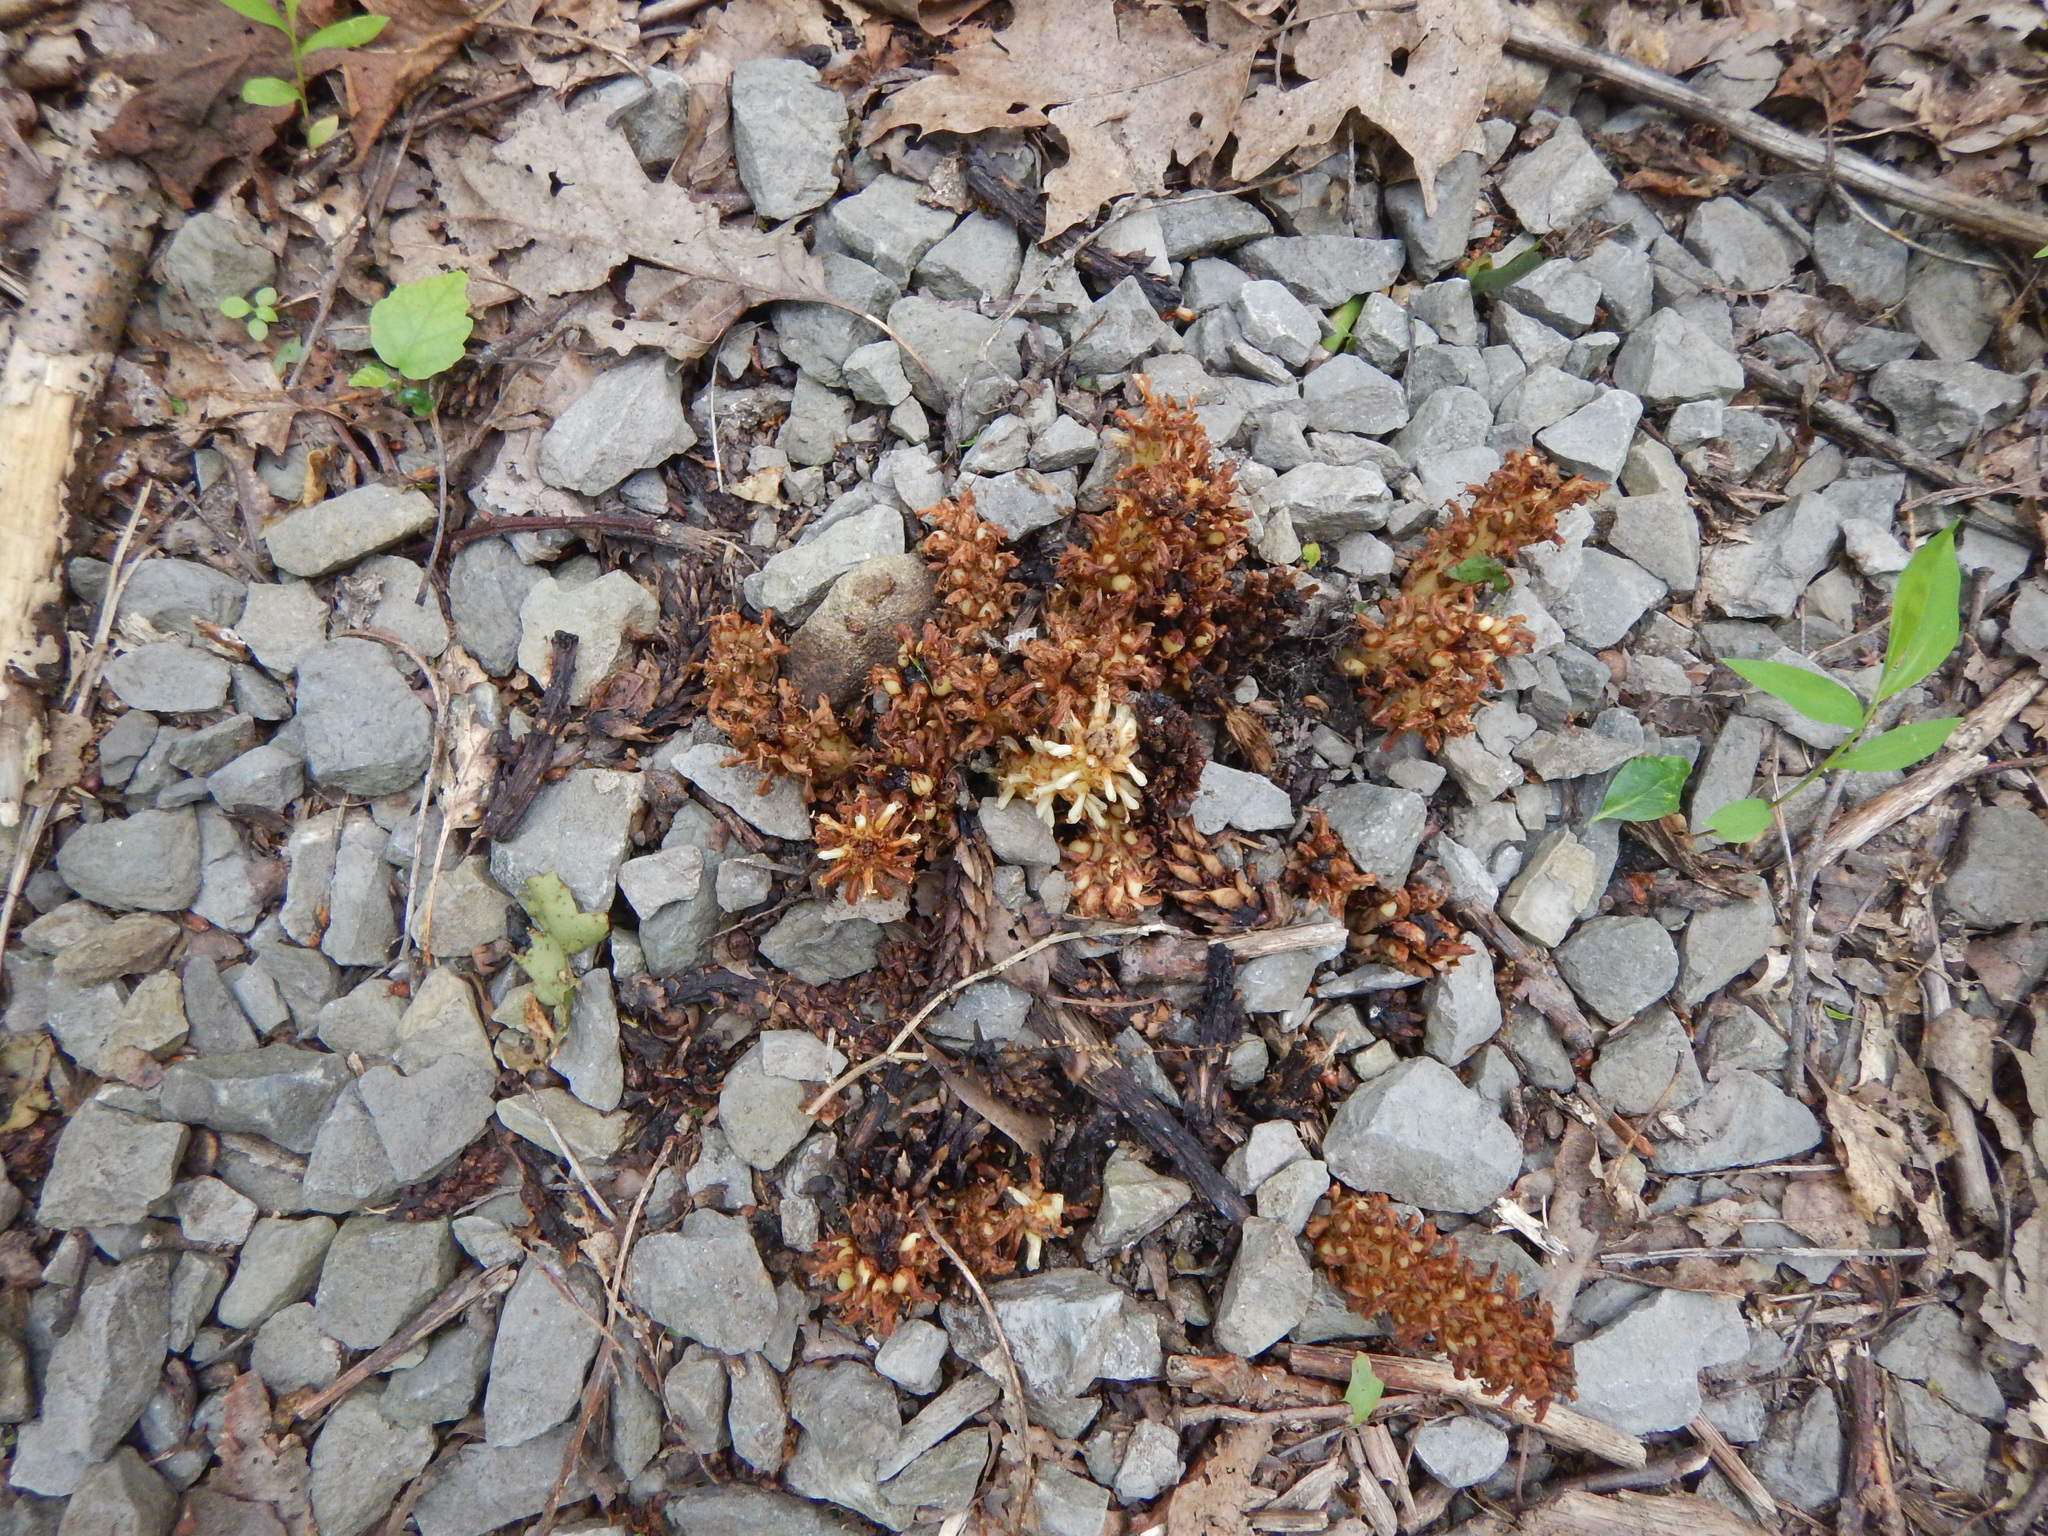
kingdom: Plantae
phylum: Tracheophyta
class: Magnoliopsida
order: Lamiales
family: Orobanchaceae
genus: Conopholis
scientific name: Conopholis americana
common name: American cancer-root
